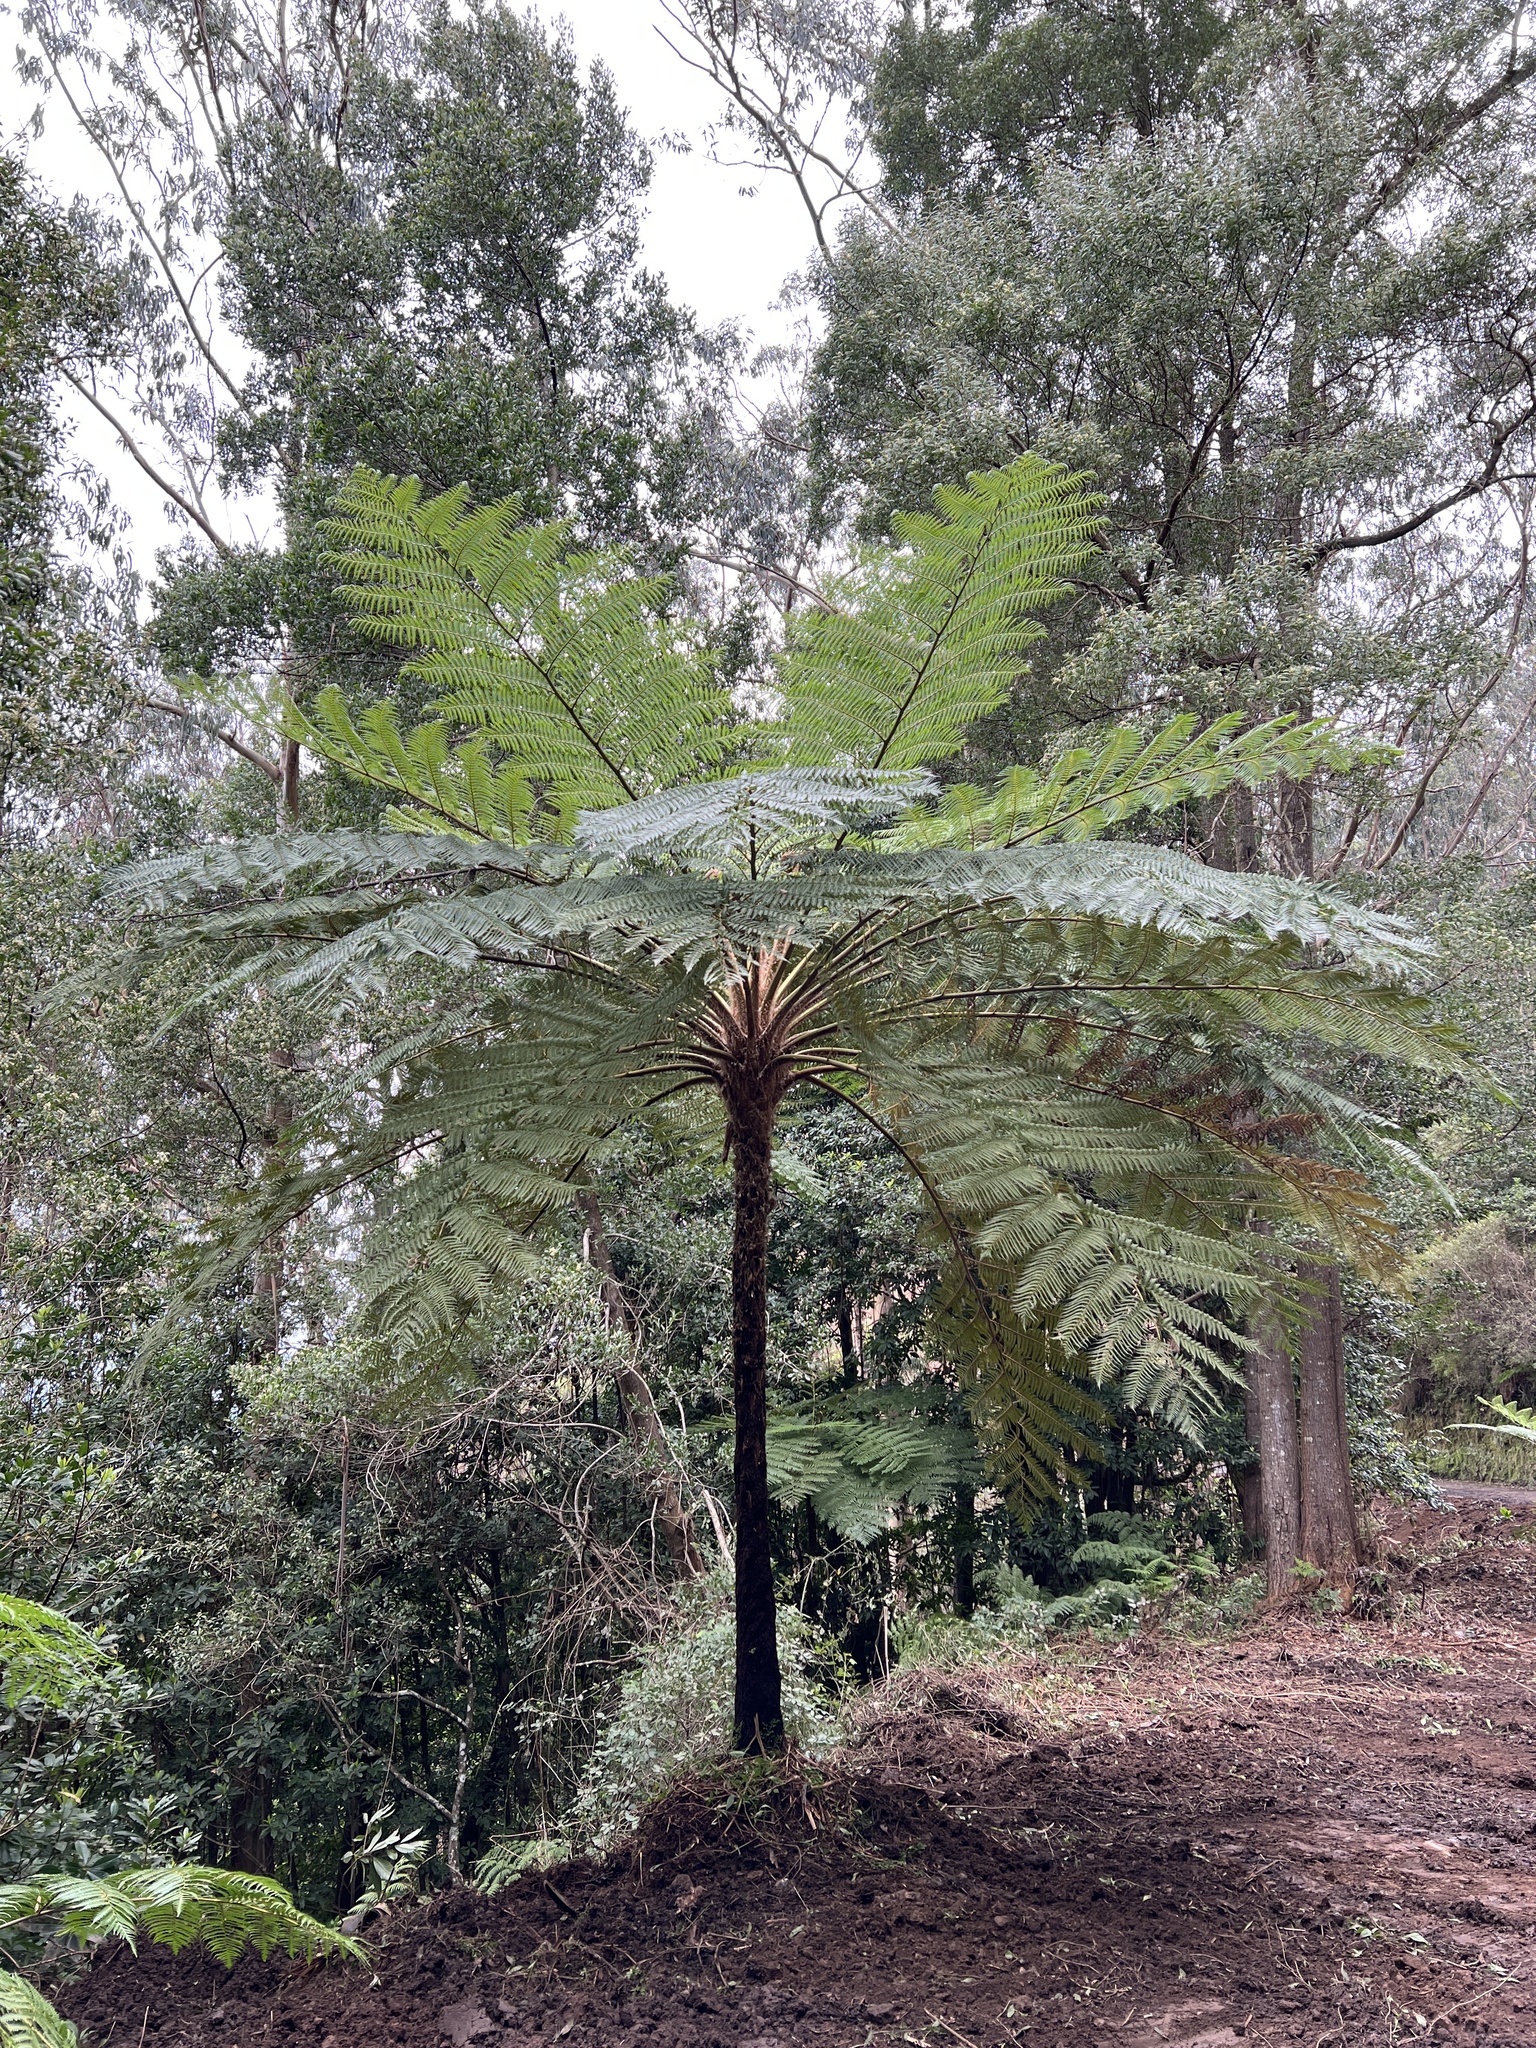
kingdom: Plantae
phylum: Tracheophyta
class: Polypodiopsida
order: Cyatheales
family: Cyatheaceae
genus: Sphaeropteris
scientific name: Sphaeropteris cooperi
